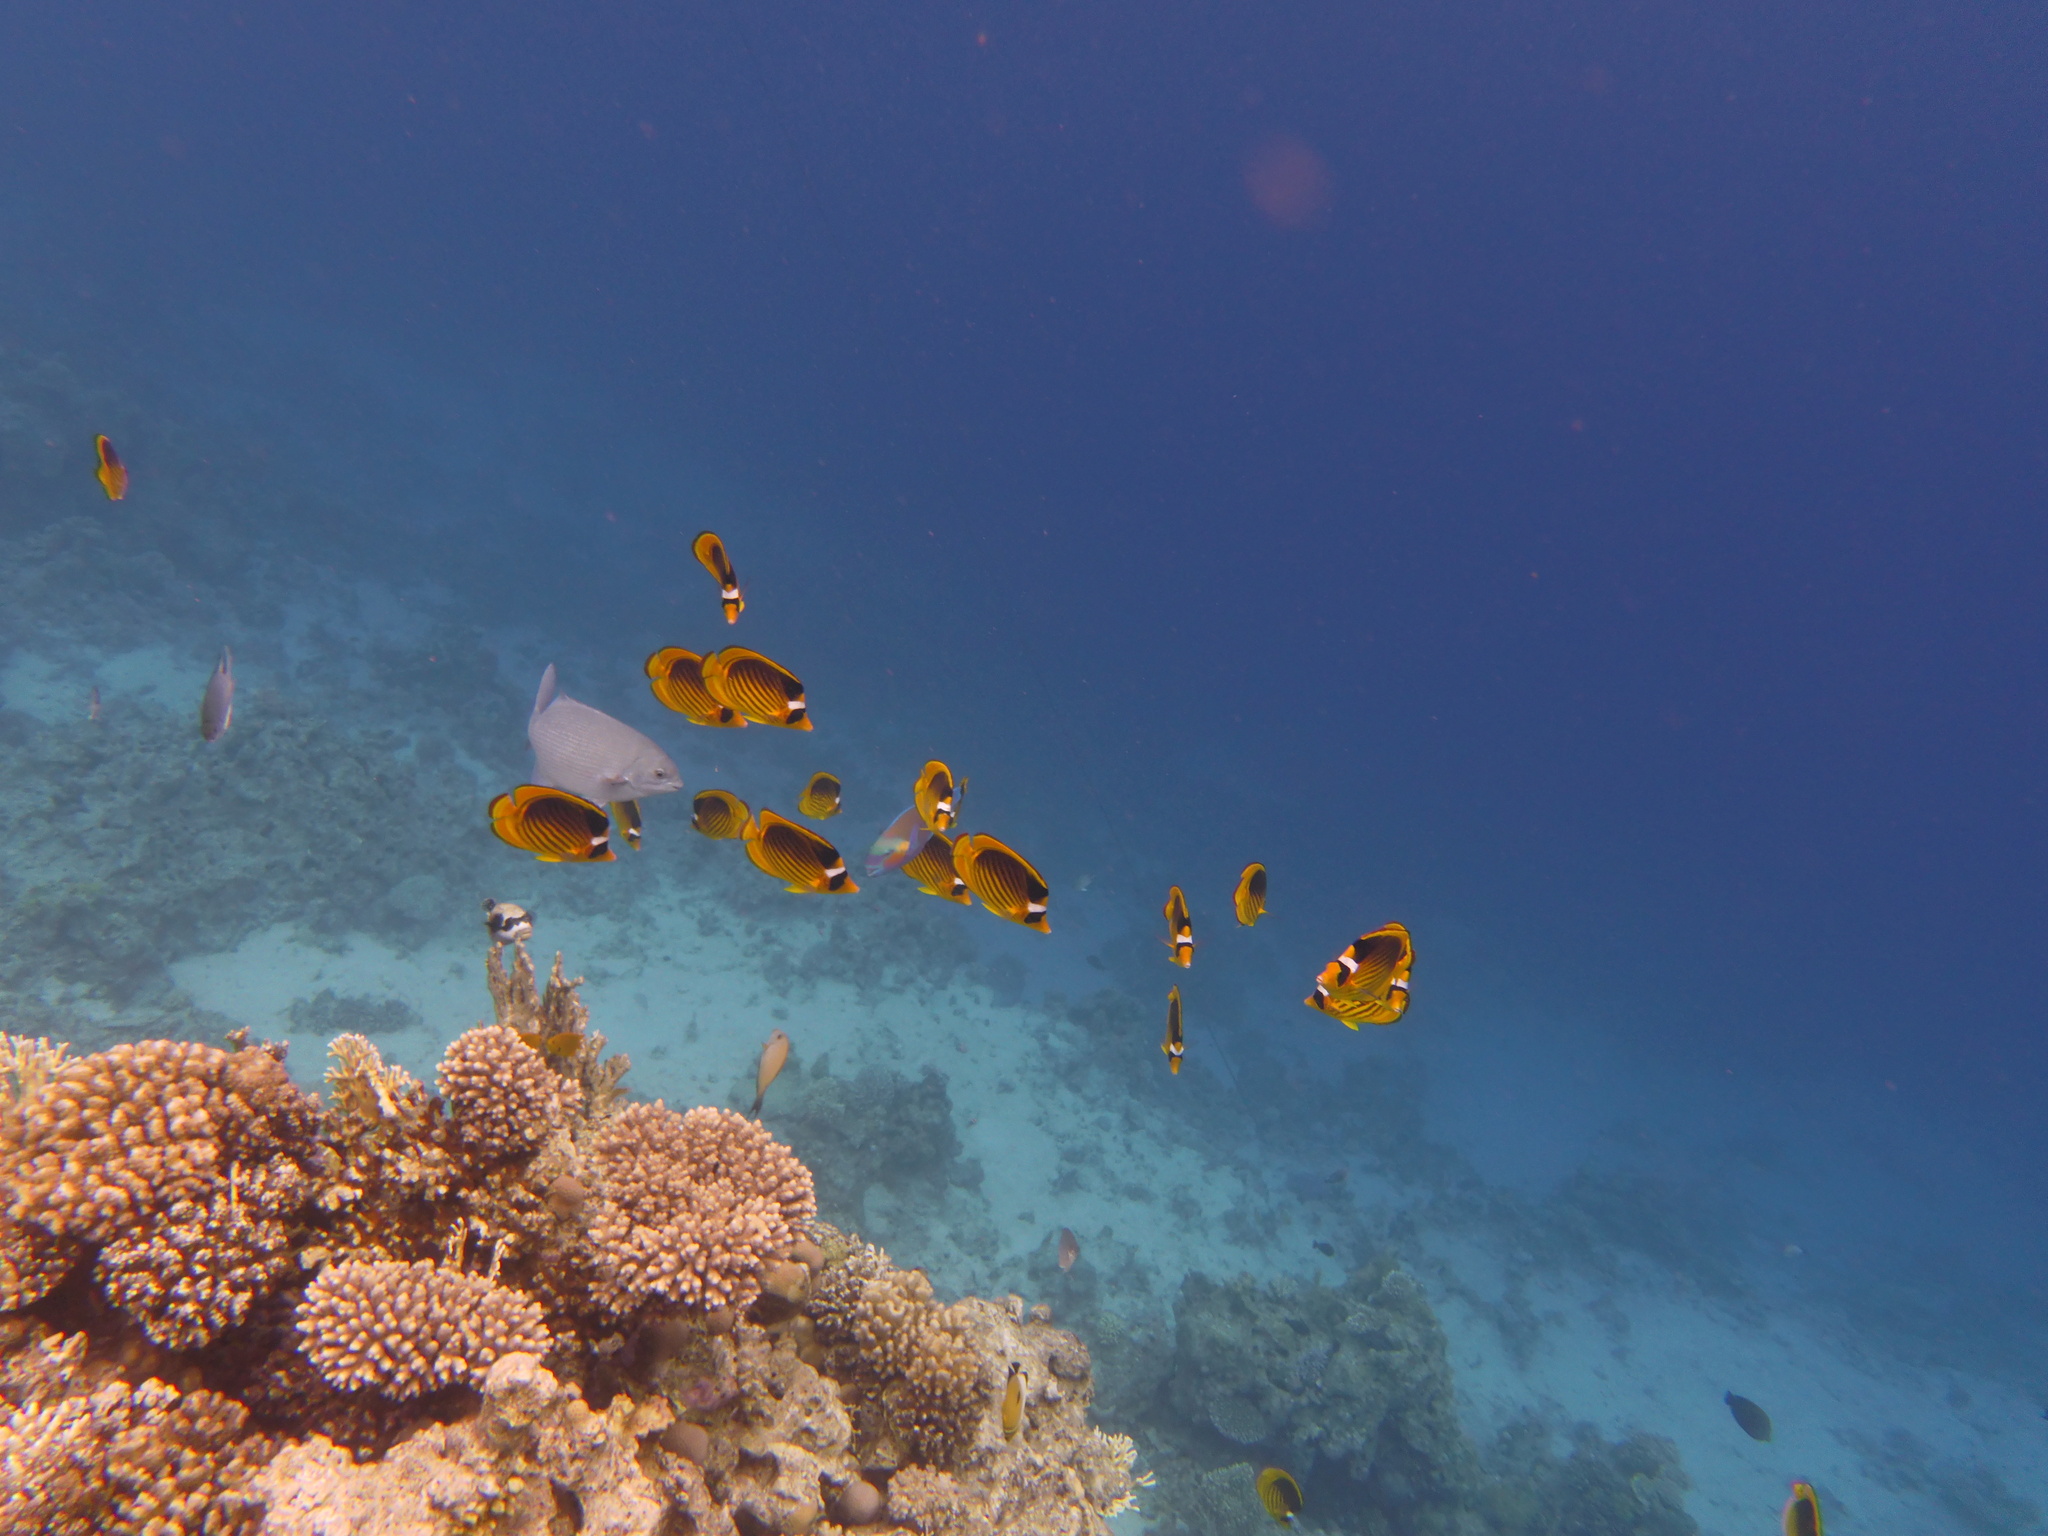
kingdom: Animalia
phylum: Chordata
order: Perciformes
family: Chaetodontidae
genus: Chaetodon
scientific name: Chaetodon fasciatus
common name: Diagonal butterflyfish
